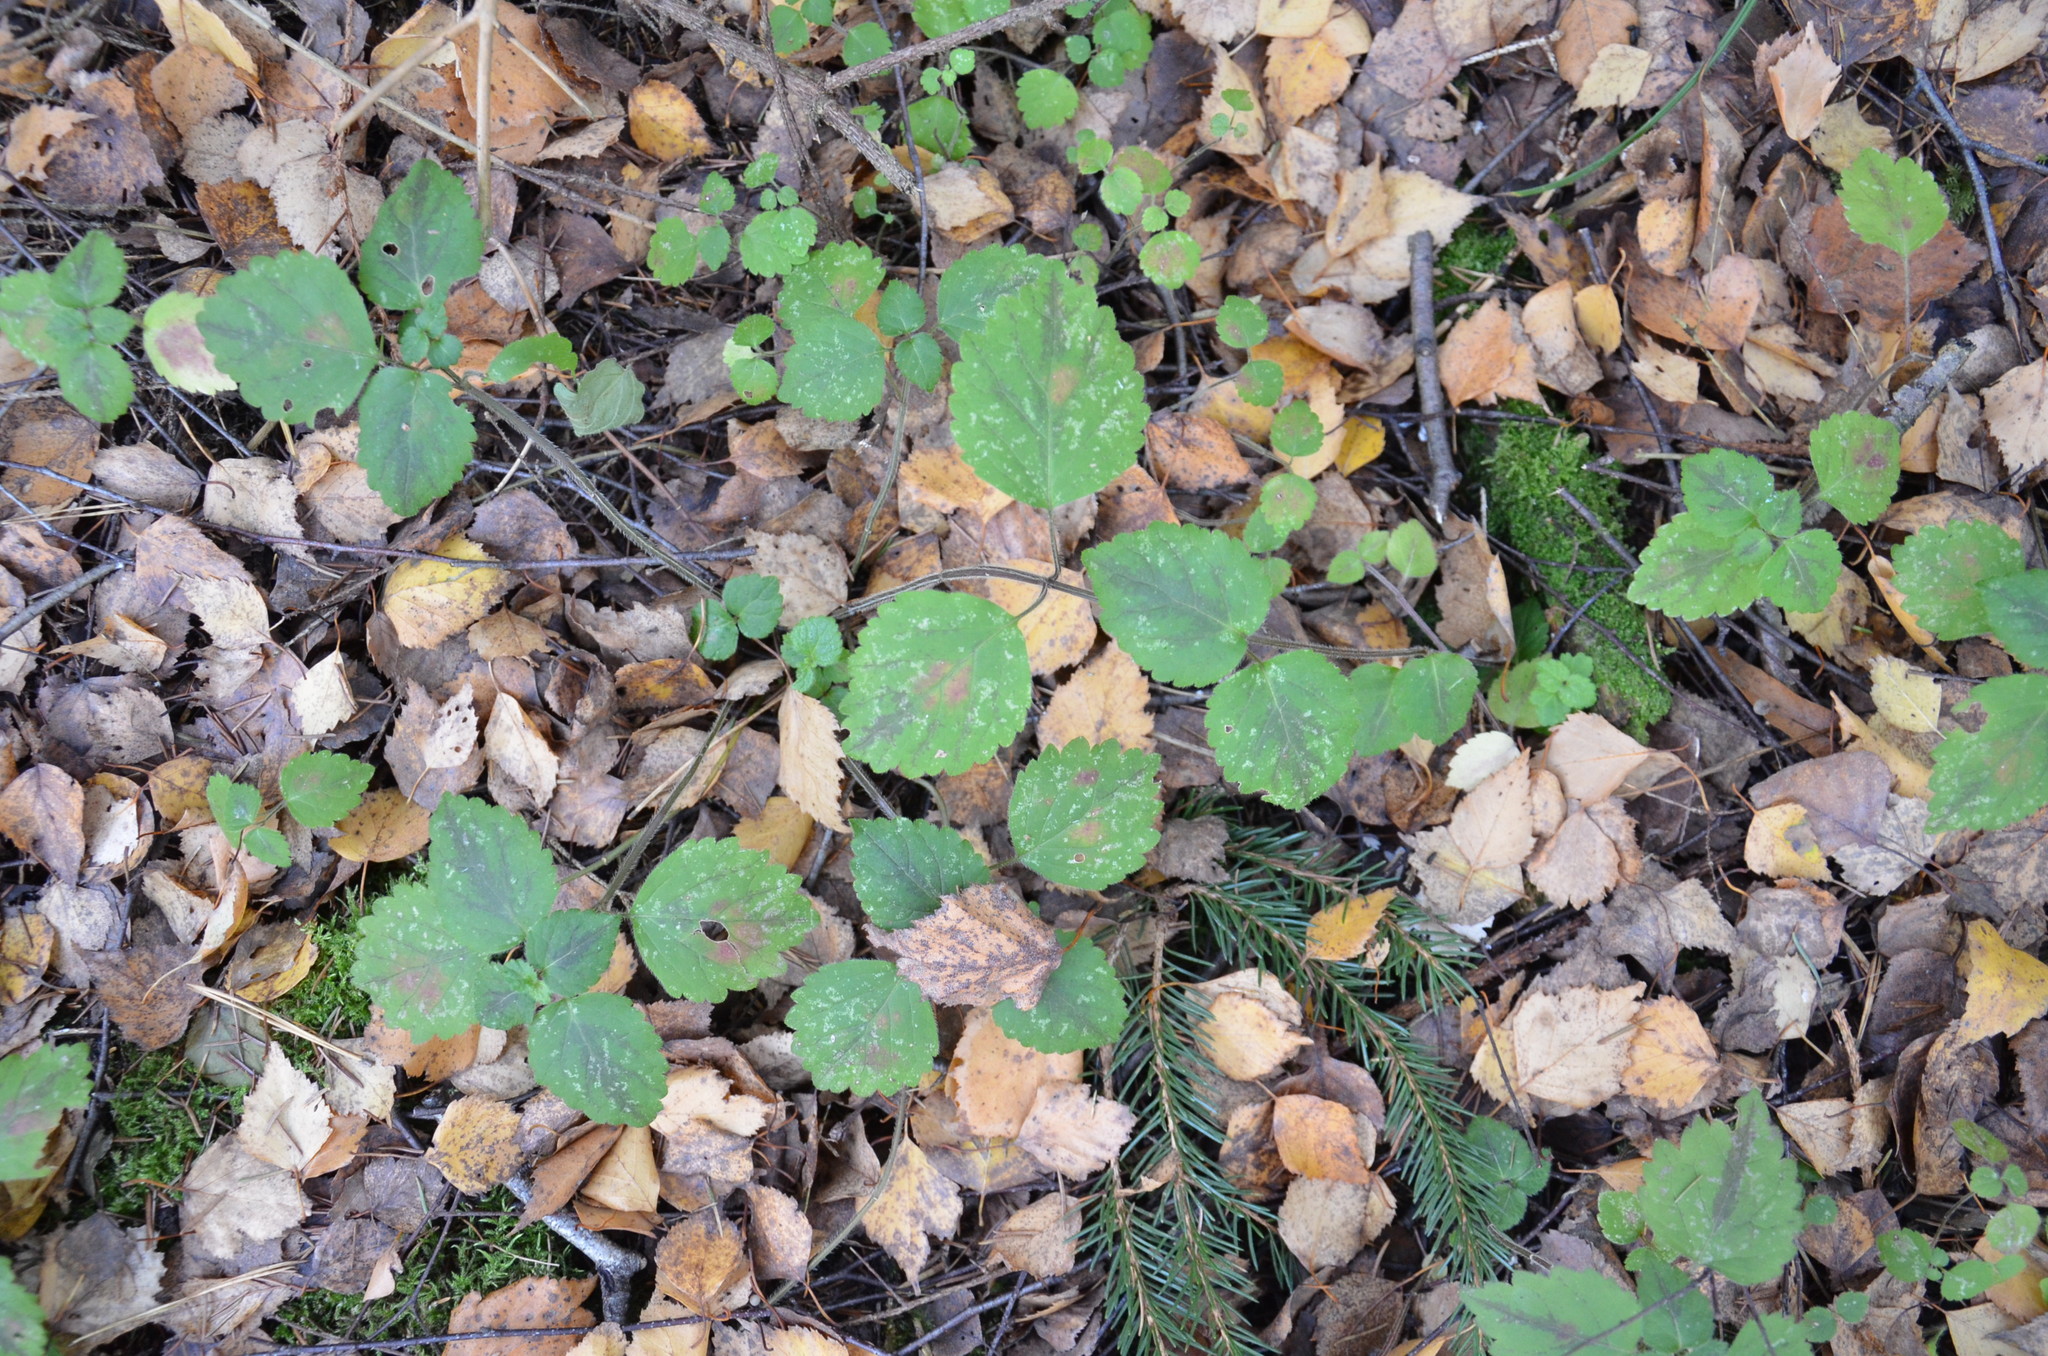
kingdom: Plantae
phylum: Tracheophyta
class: Magnoliopsida
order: Lamiales
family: Lamiaceae
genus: Lamium
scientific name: Lamium galeobdolon
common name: Yellow archangel
